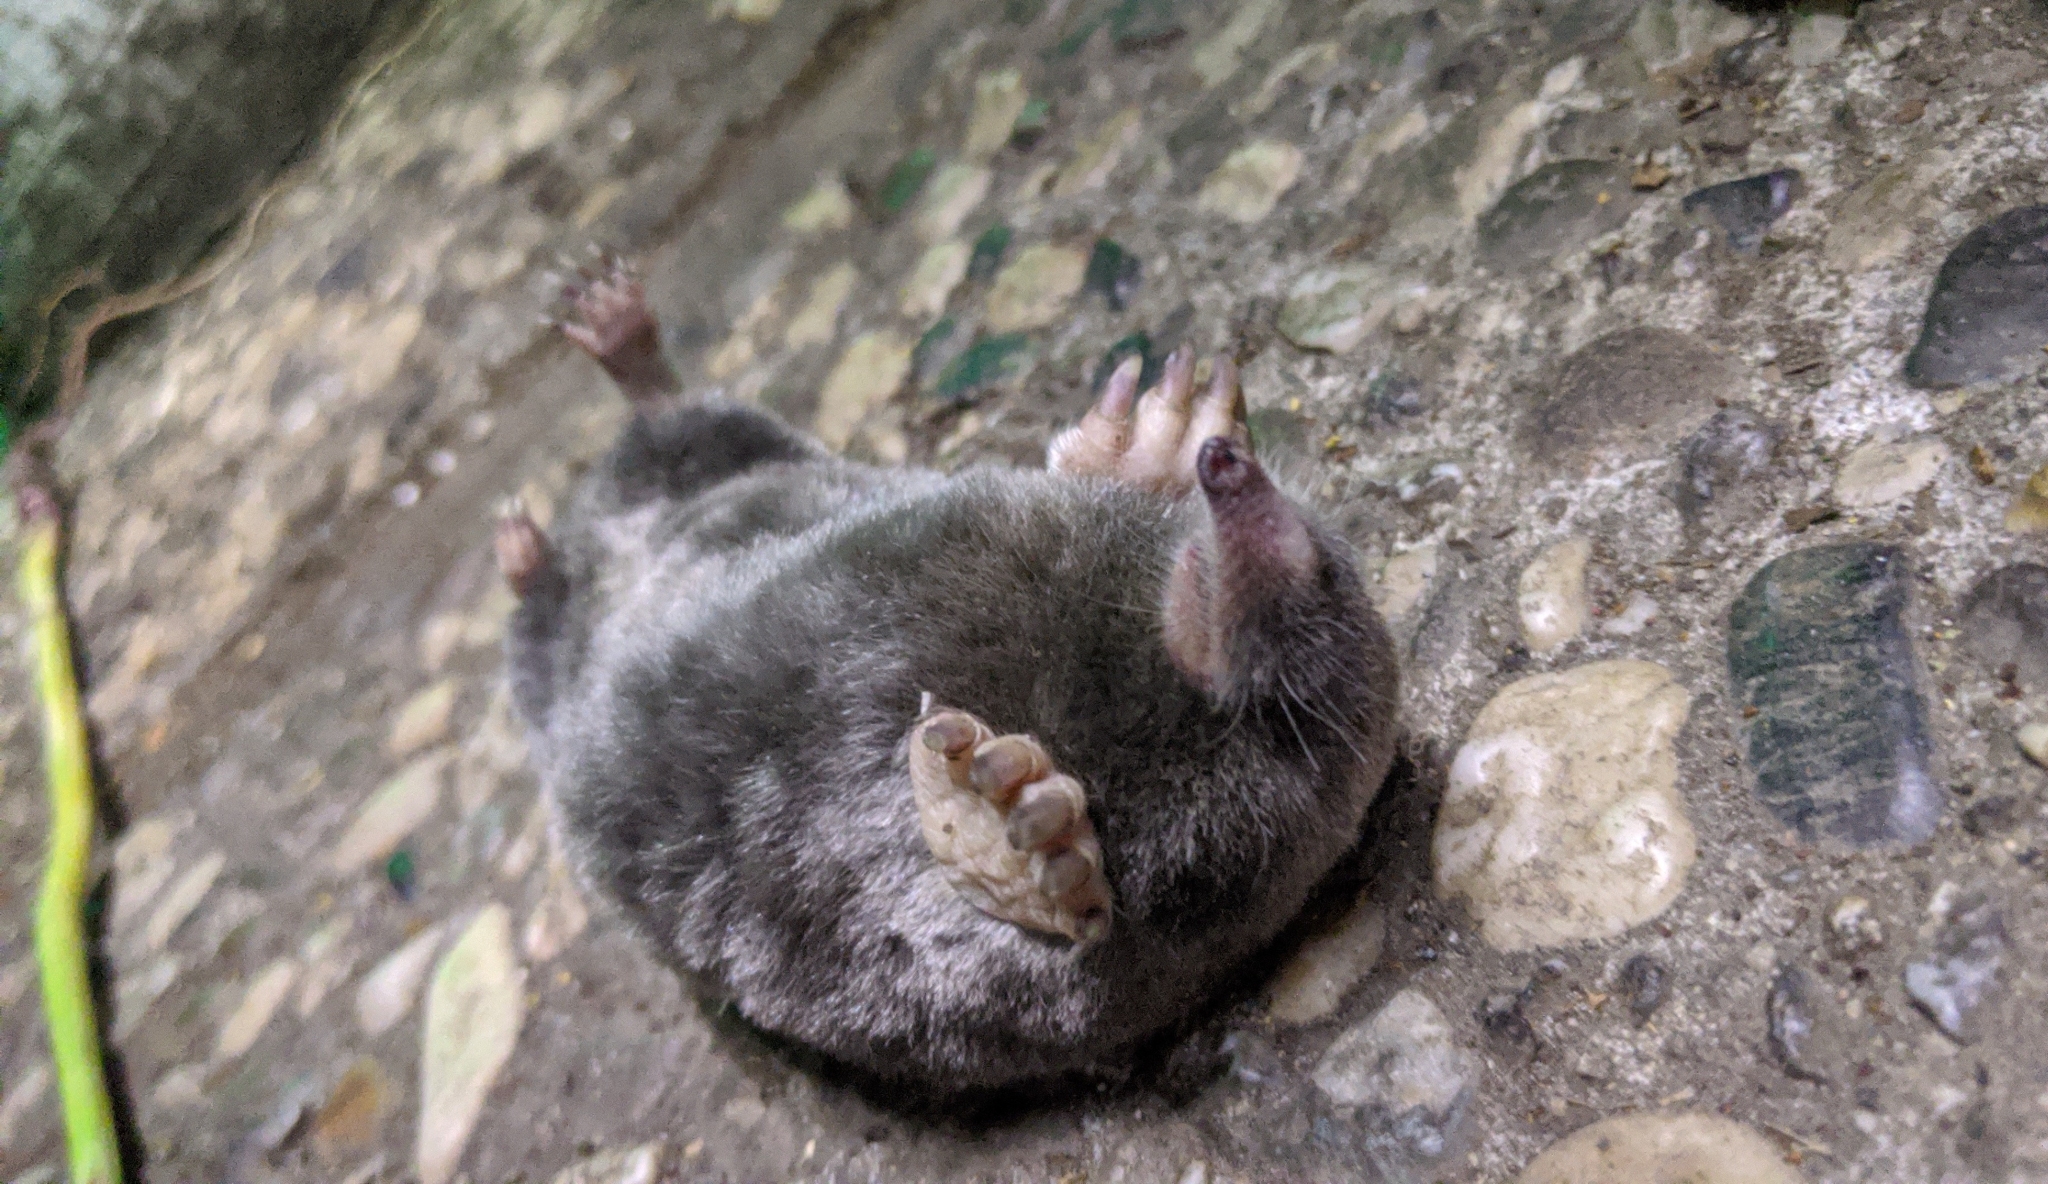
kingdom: Animalia
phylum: Chordata
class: Mammalia
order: Soricomorpha
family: Talpidae
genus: Scapanus
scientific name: Scapanus latimanus
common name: Broad-footed mole
